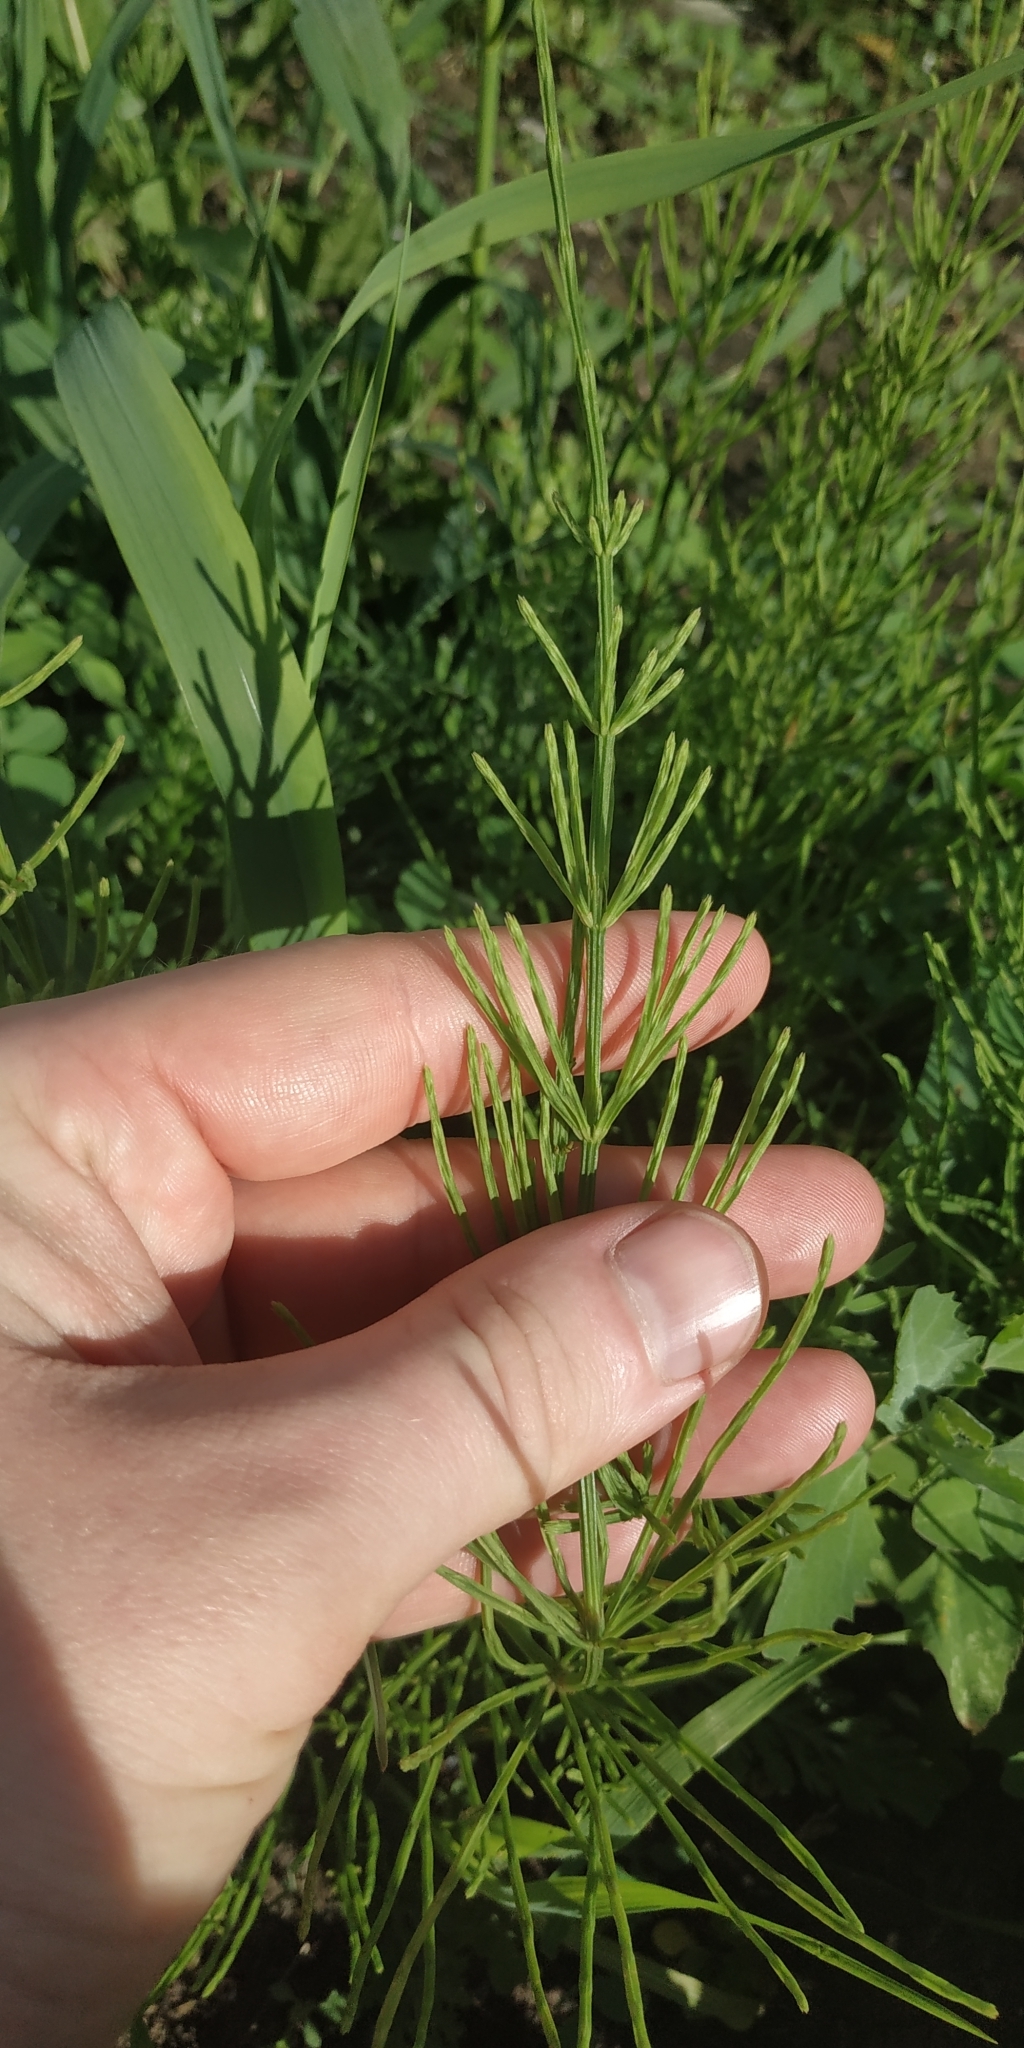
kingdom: Plantae
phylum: Tracheophyta
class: Polypodiopsida
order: Equisetales
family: Equisetaceae
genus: Equisetum
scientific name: Equisetum arvense
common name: Field horsetail
